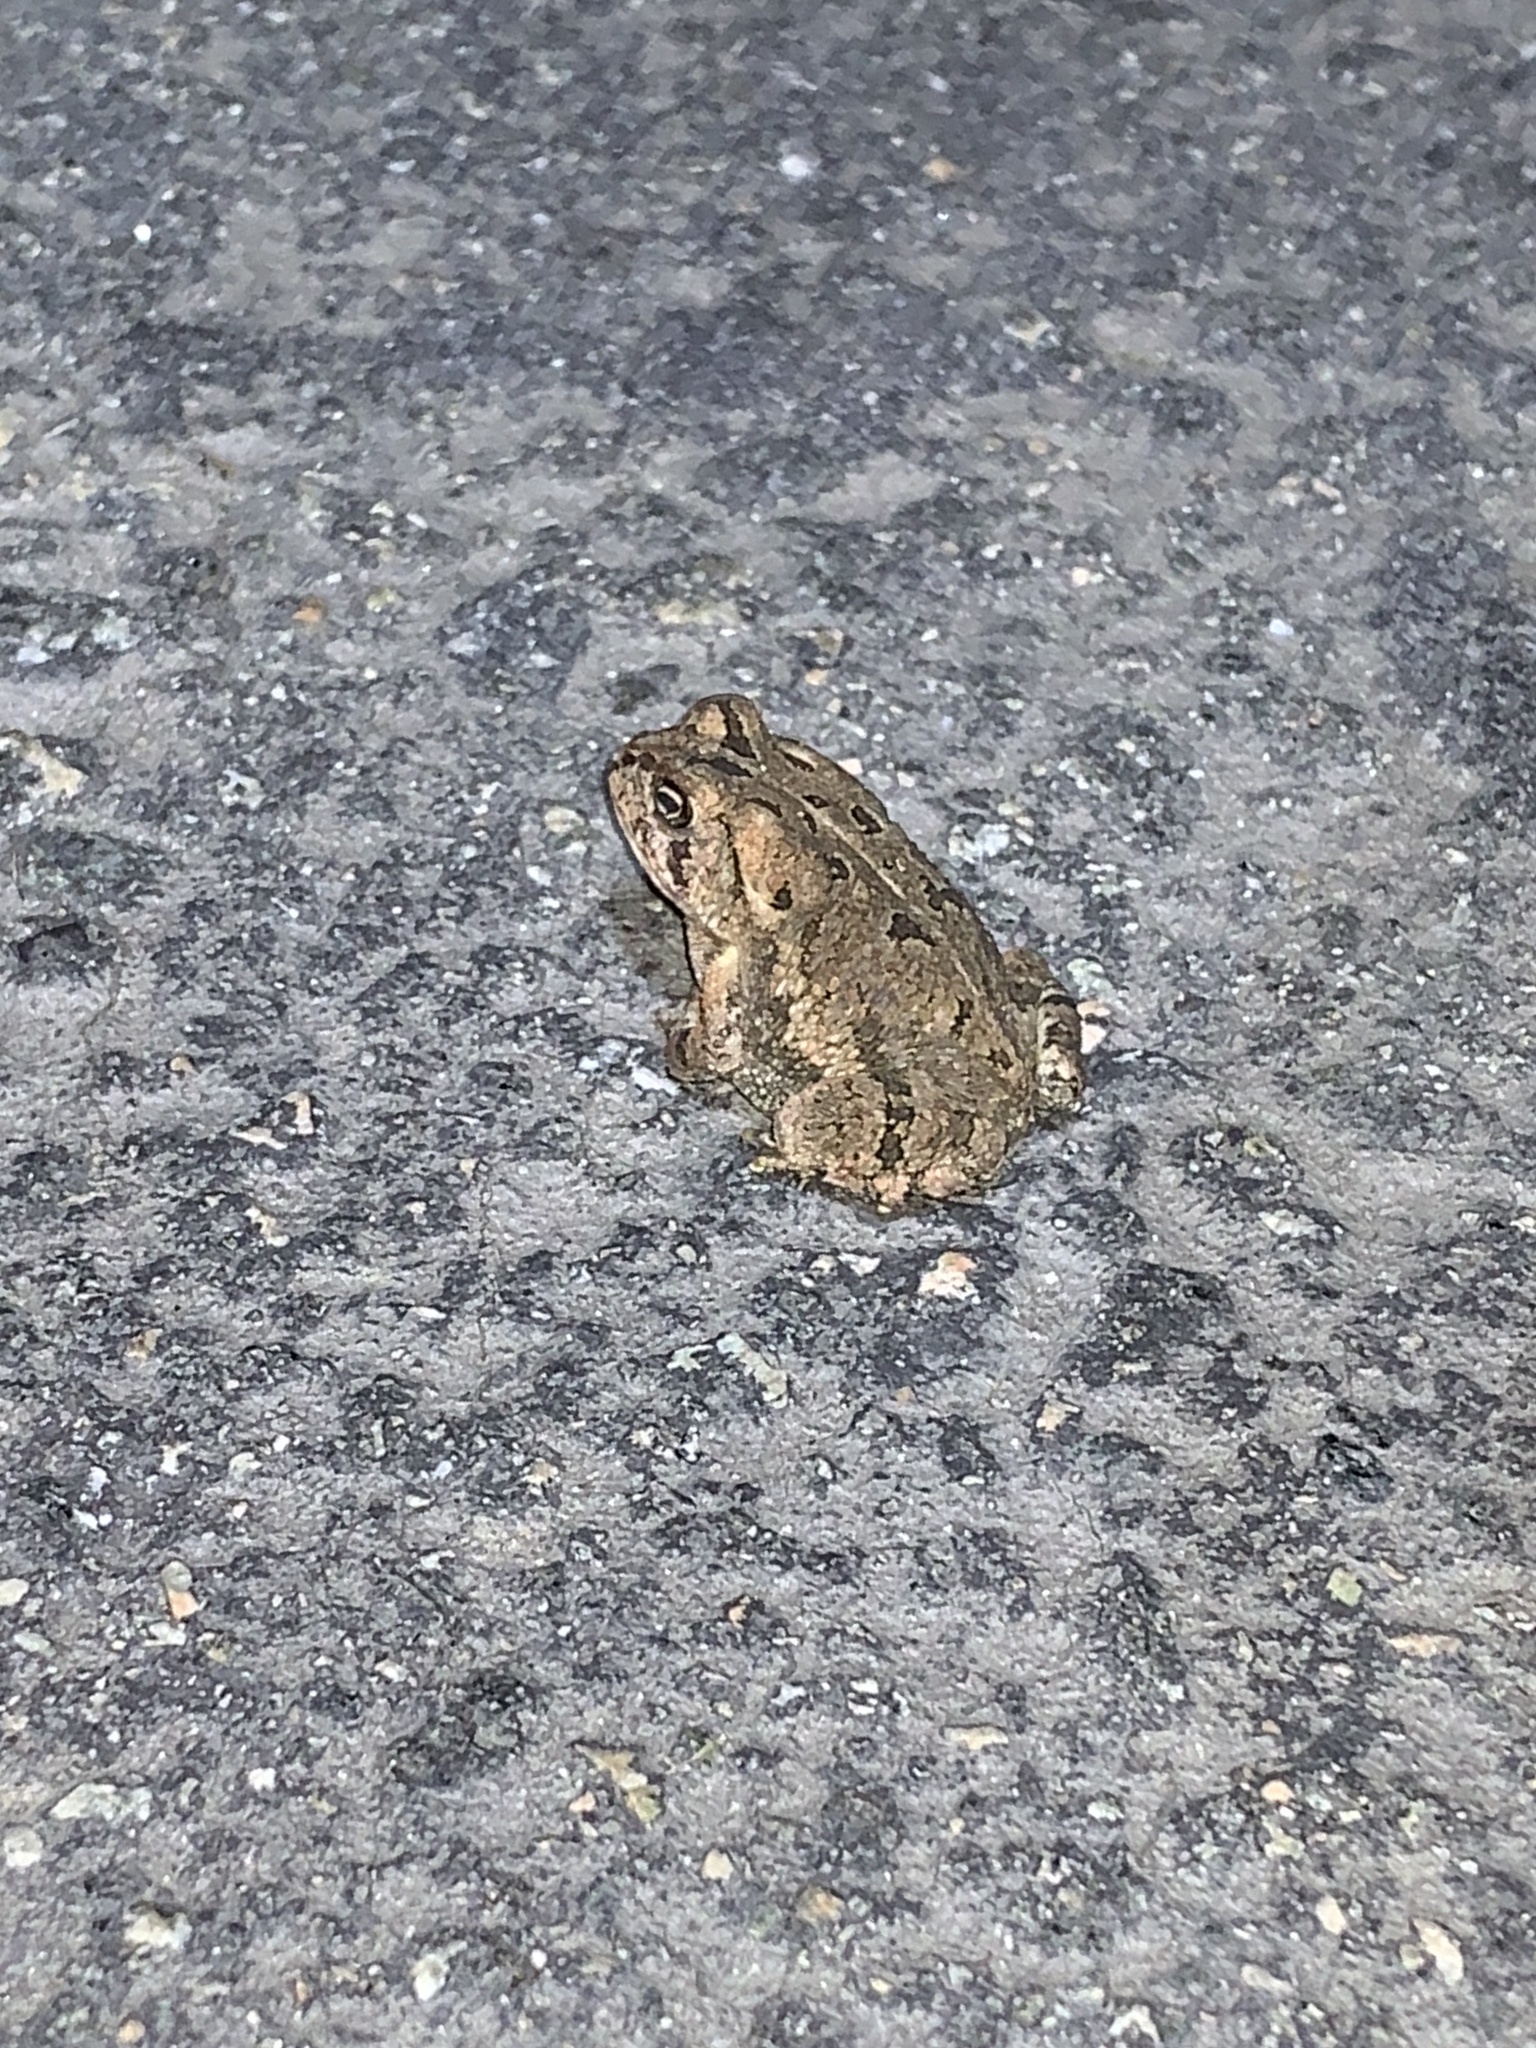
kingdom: Animalia
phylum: Chordata
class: Amphibia
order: Anura
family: Bufonidae
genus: Anaxyrus
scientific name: Anaxyrus fowleri
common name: Fowler's toad
